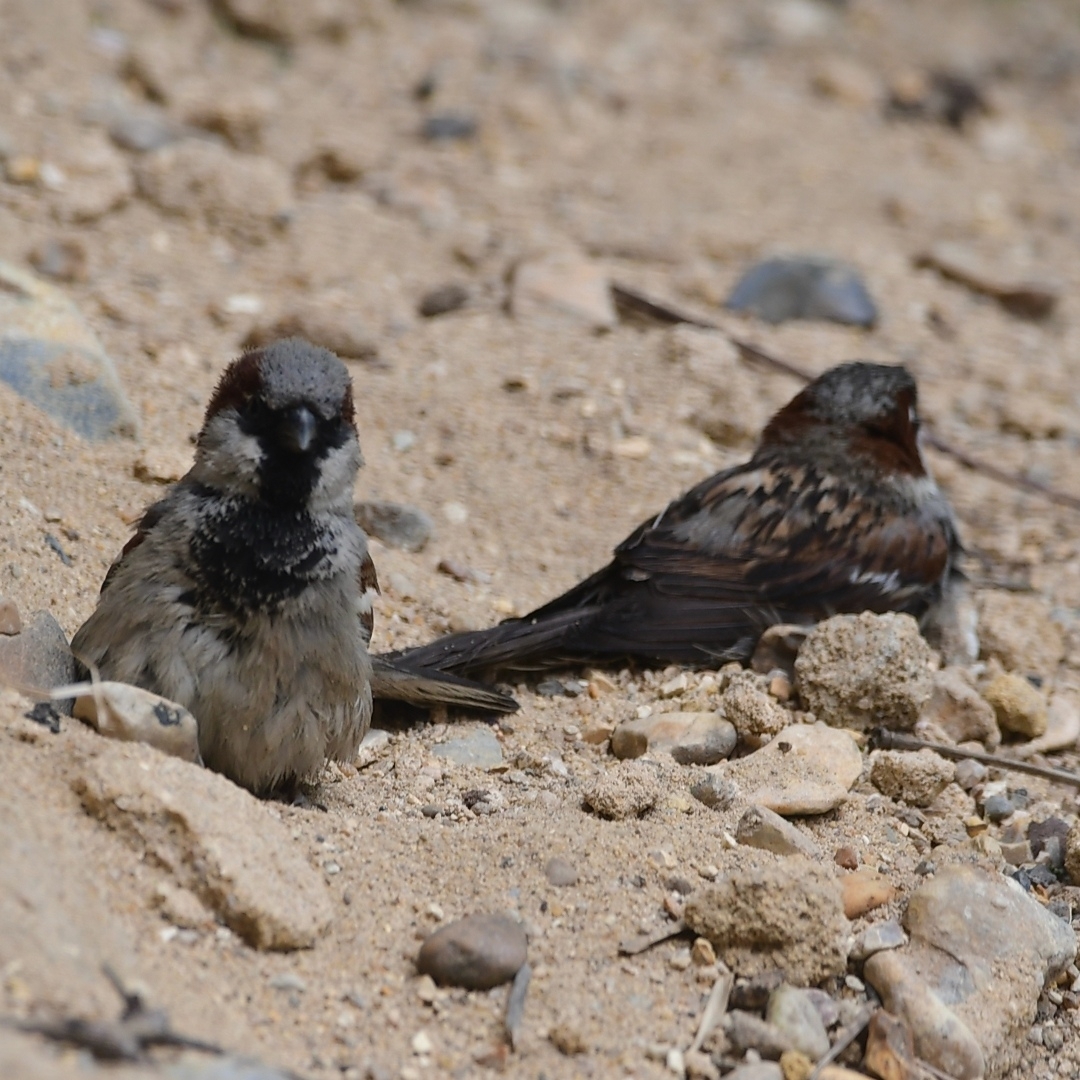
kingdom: Animalia
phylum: Chordata
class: Aves
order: Passeriformes
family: Passeridae
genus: Passer
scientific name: Passer domesticus
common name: House sparrow
